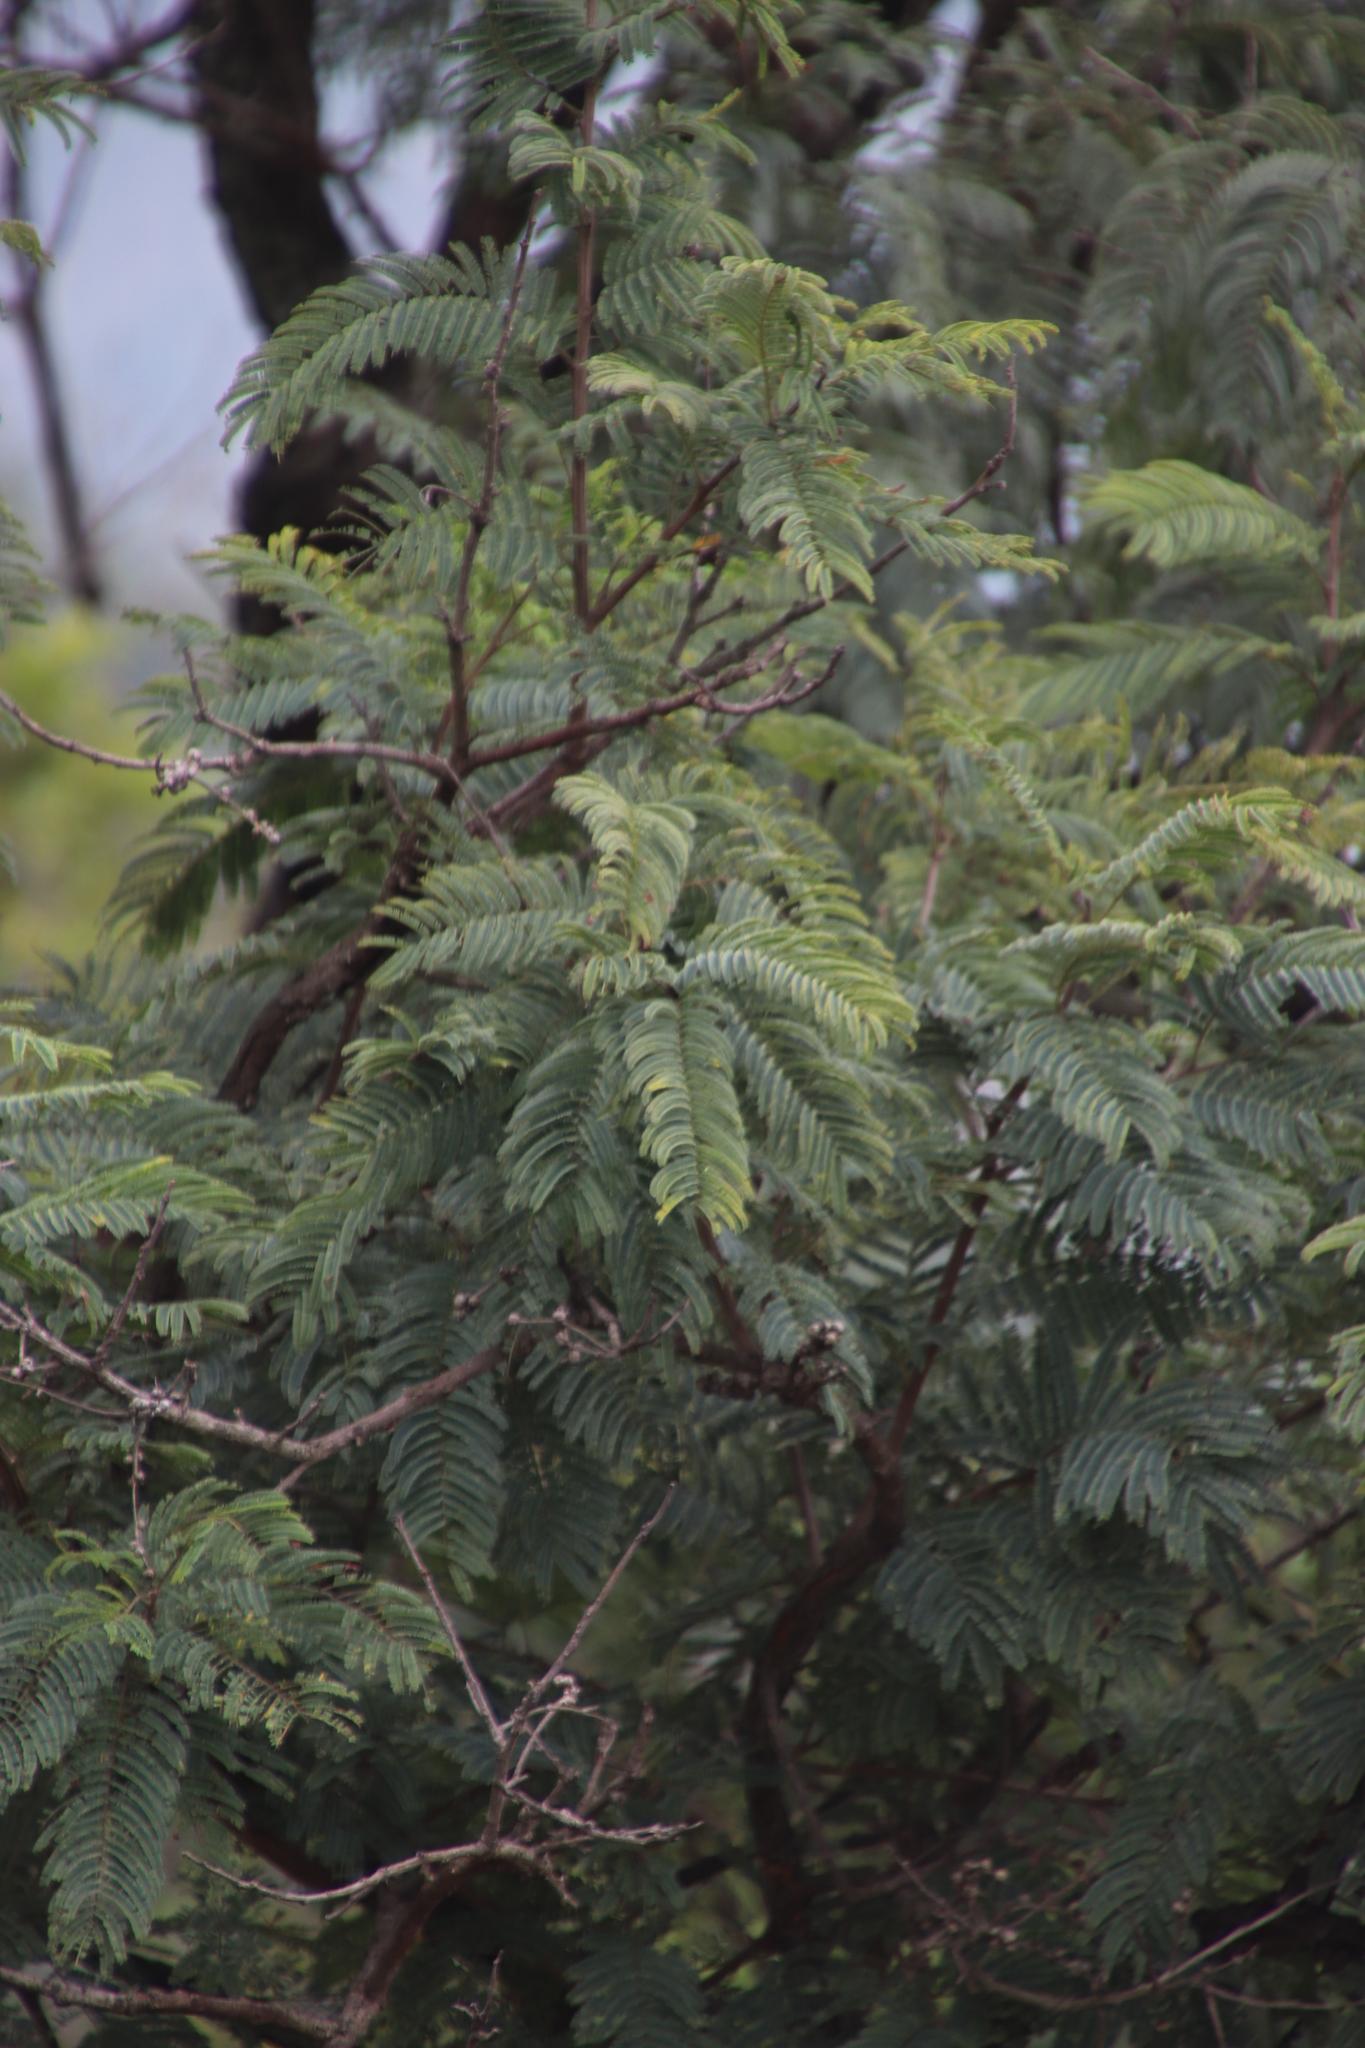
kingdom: Plantae
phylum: Tracheophyta
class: Magnoliopsida
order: Fabales
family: Fabaceae
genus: Senegalia
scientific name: Senegalia caffra
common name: Cat thorn
